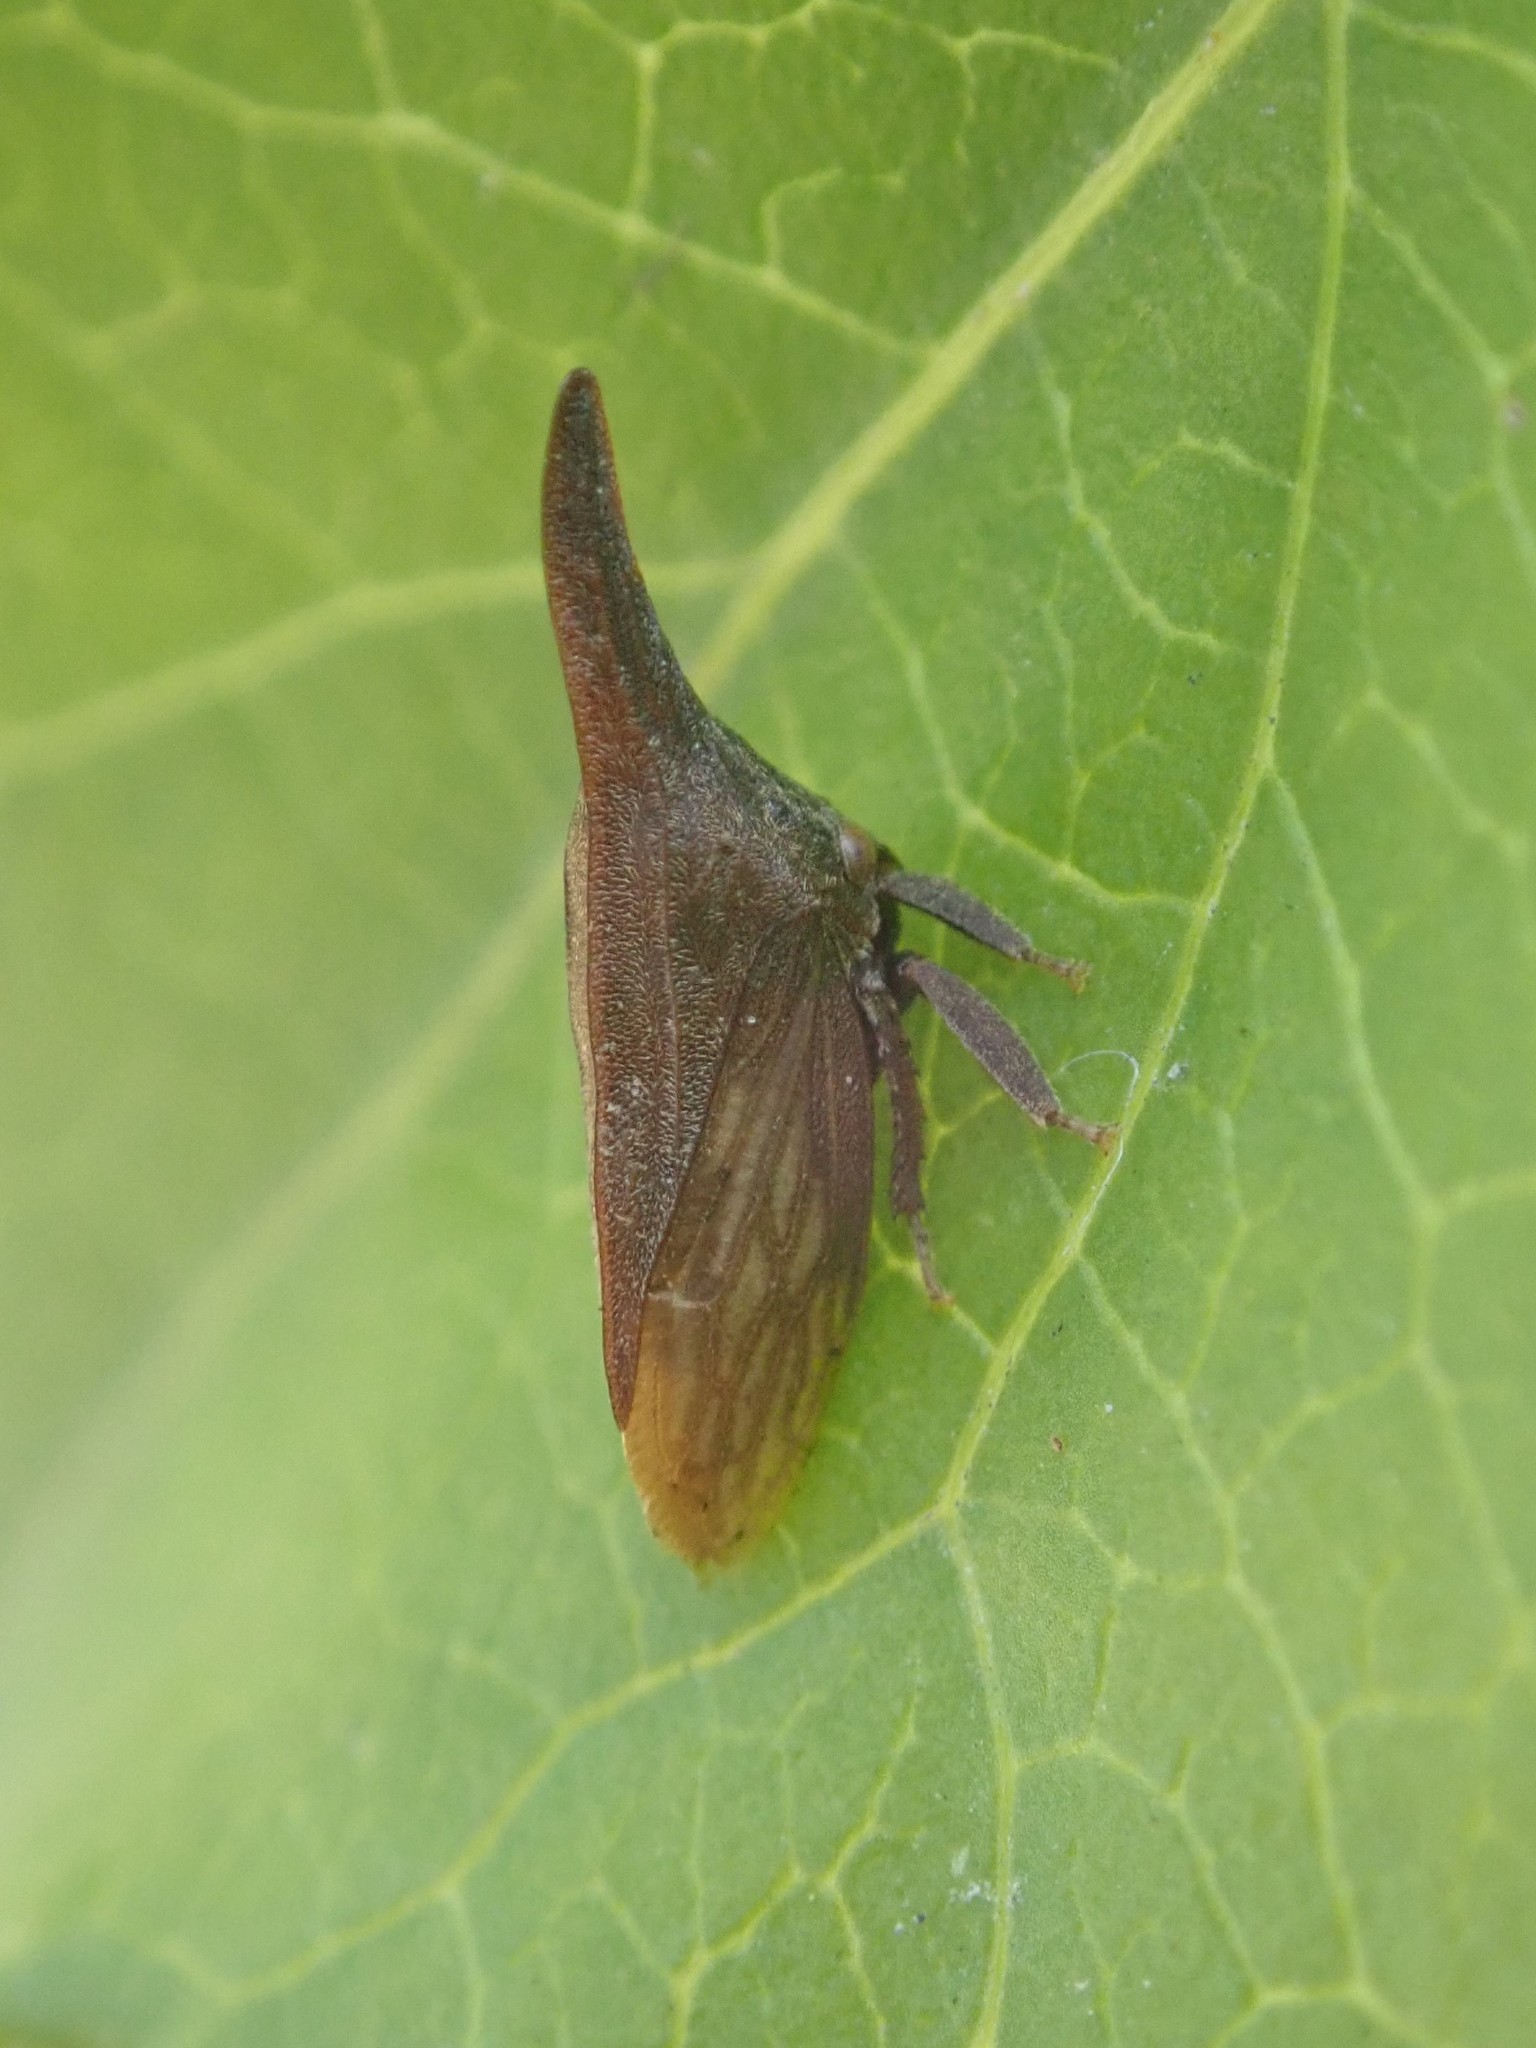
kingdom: Animalia
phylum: Arthropoda
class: Insecta
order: Hemiptera
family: Membracidae
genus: Enchenopa
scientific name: Enchenopa latipes
